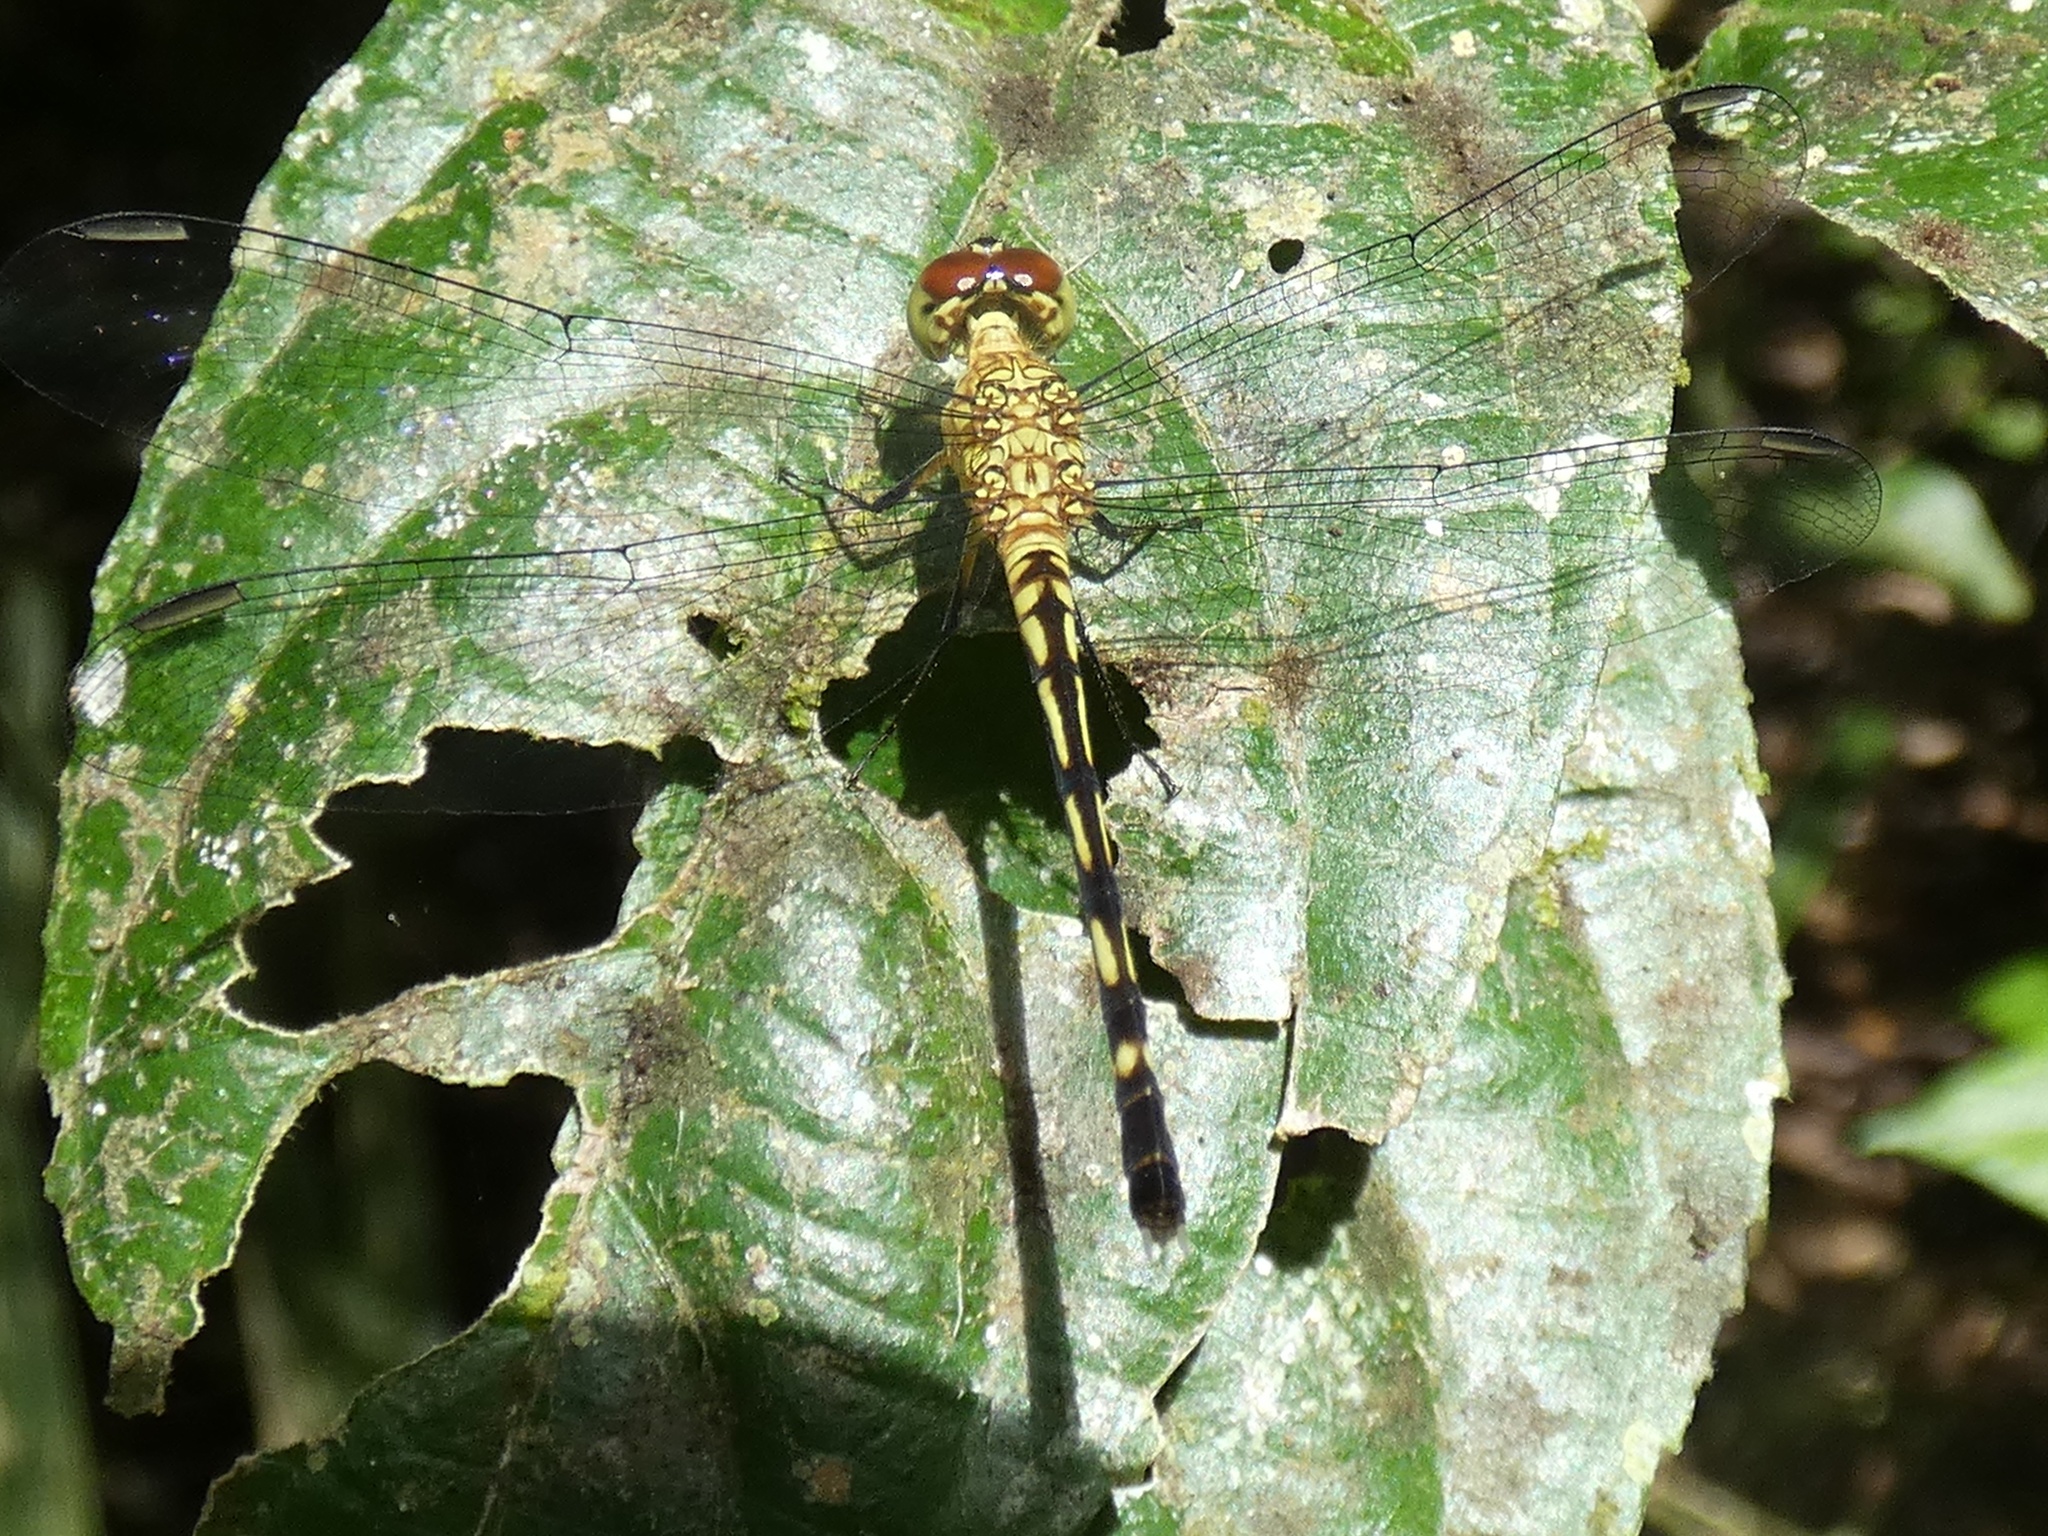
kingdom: Animalia
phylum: Arthropoda
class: Insecta
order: Odonata
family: Libellulidae
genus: Dythemis
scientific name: Dythemis sterilis
